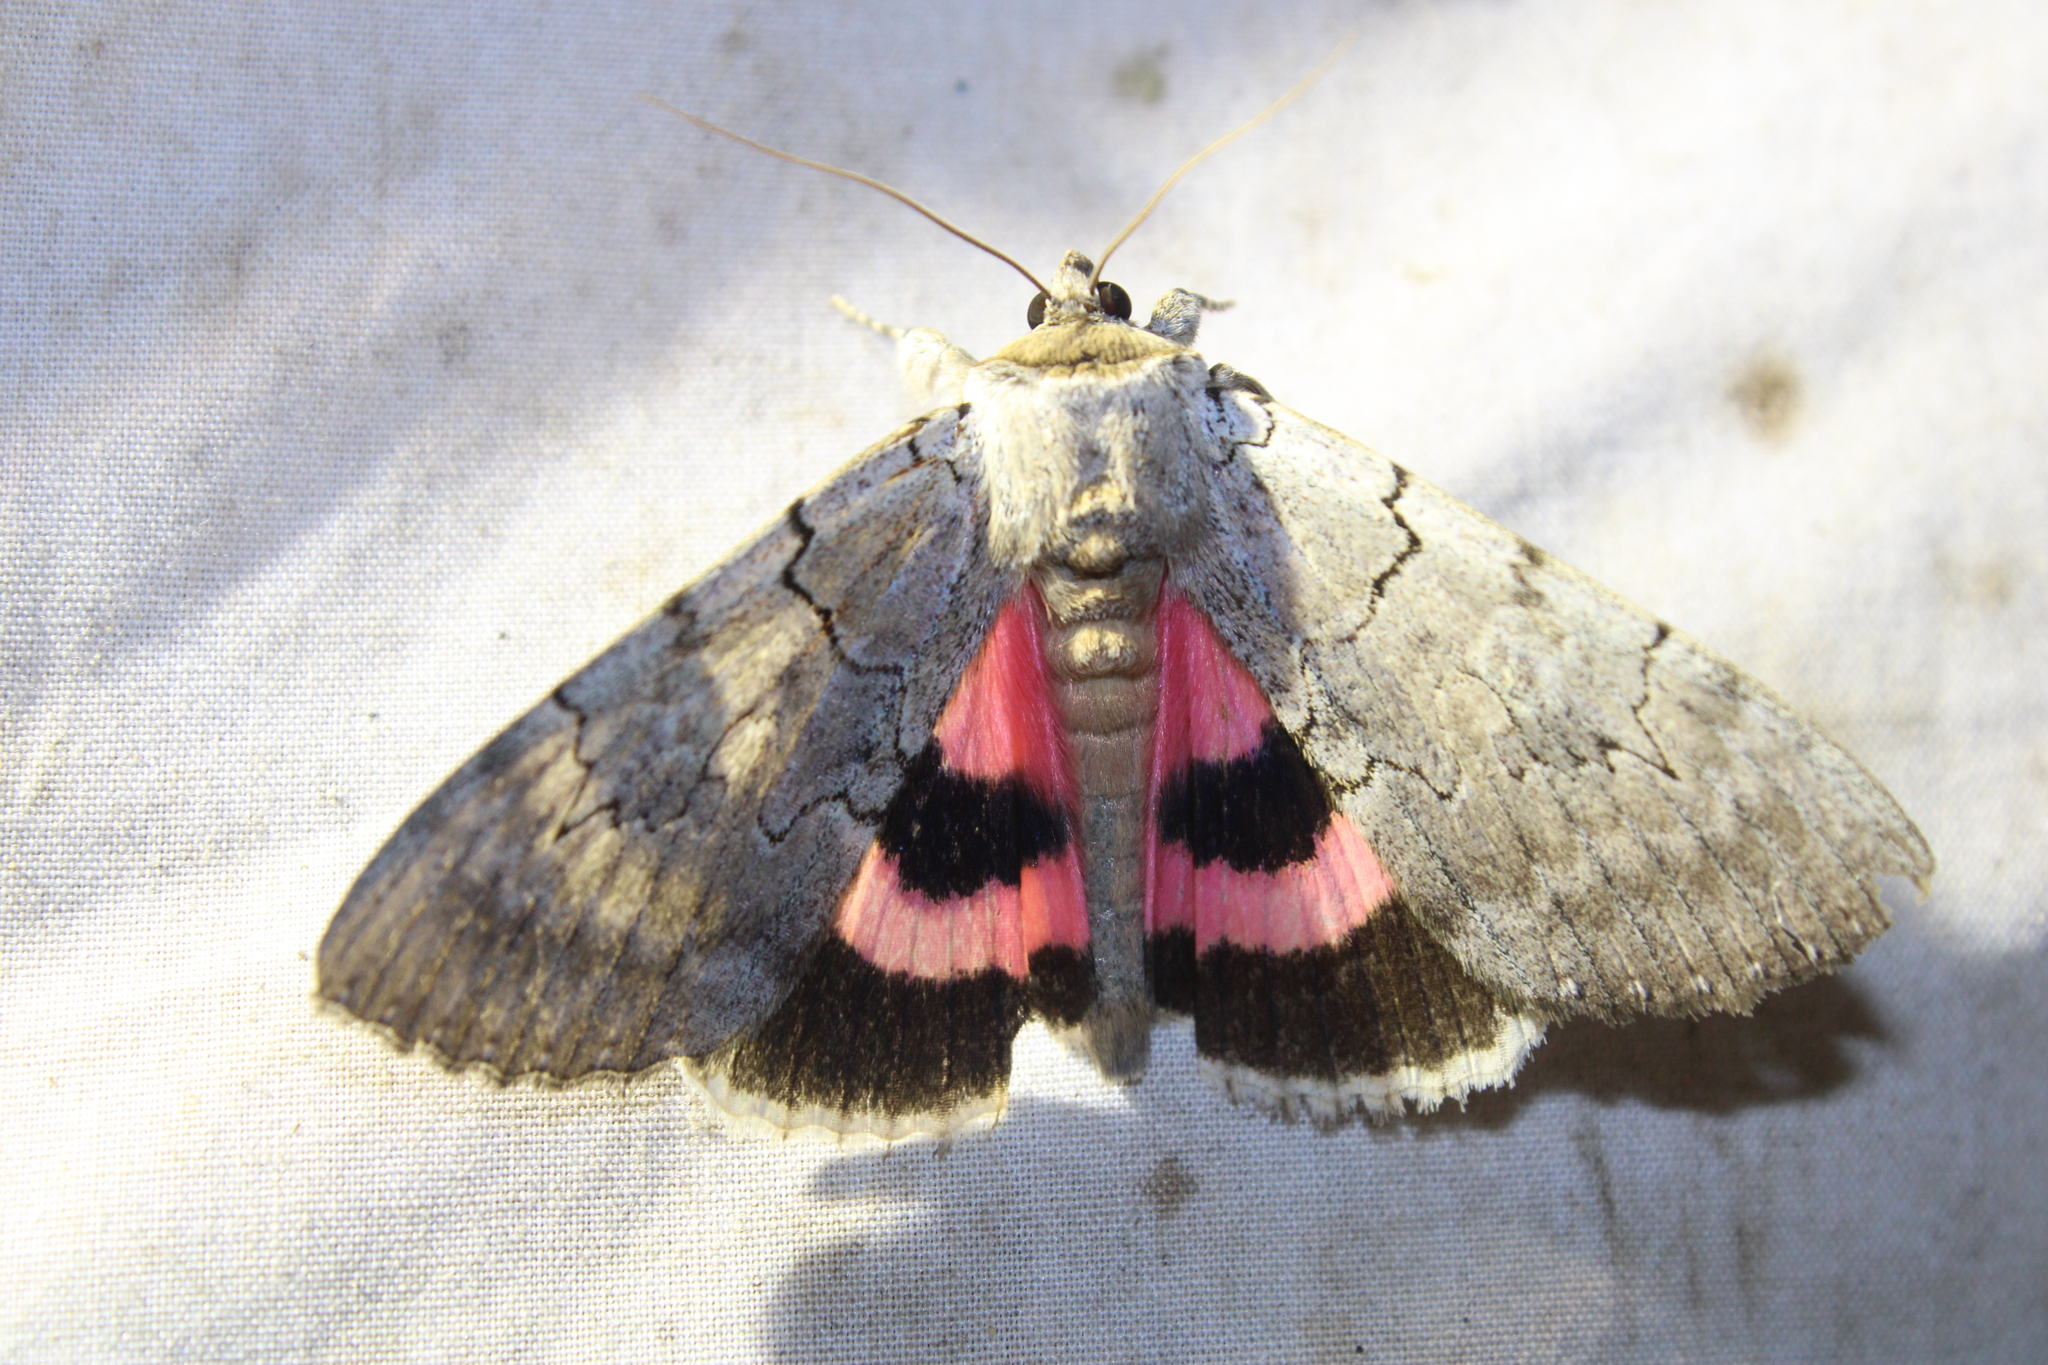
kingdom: Animalia
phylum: Arthropoda
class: Insecta
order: Lepidoptera
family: Erebidae
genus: Catocala
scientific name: Catocala concumbens
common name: Pink underwing
